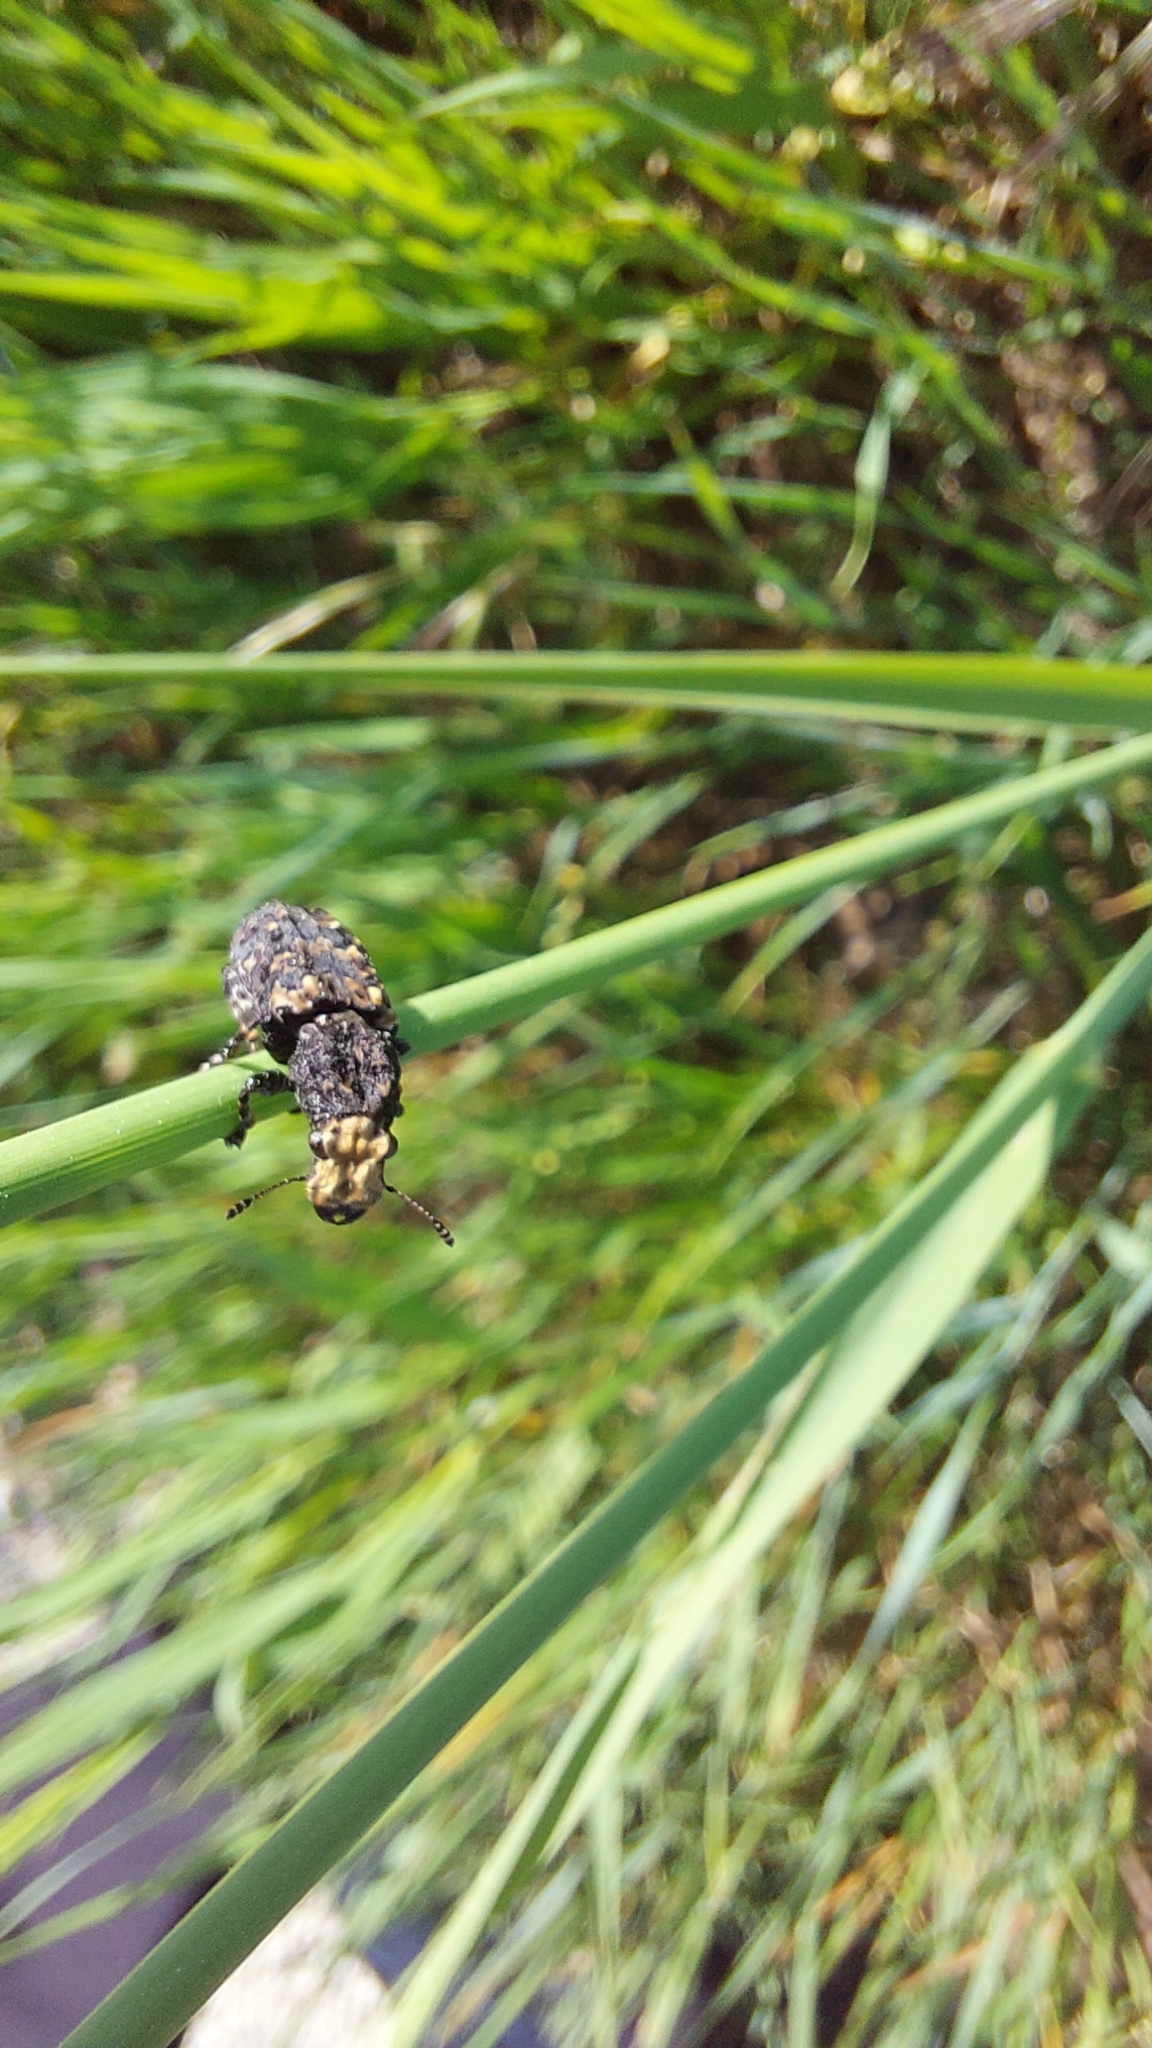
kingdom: Animalia
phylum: Arthropoda
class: Insecta
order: Coleoptera
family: Anthribidae
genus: Platyrhinus
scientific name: Platyrhinus resinosus
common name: Cramp-ball fungus weevil
